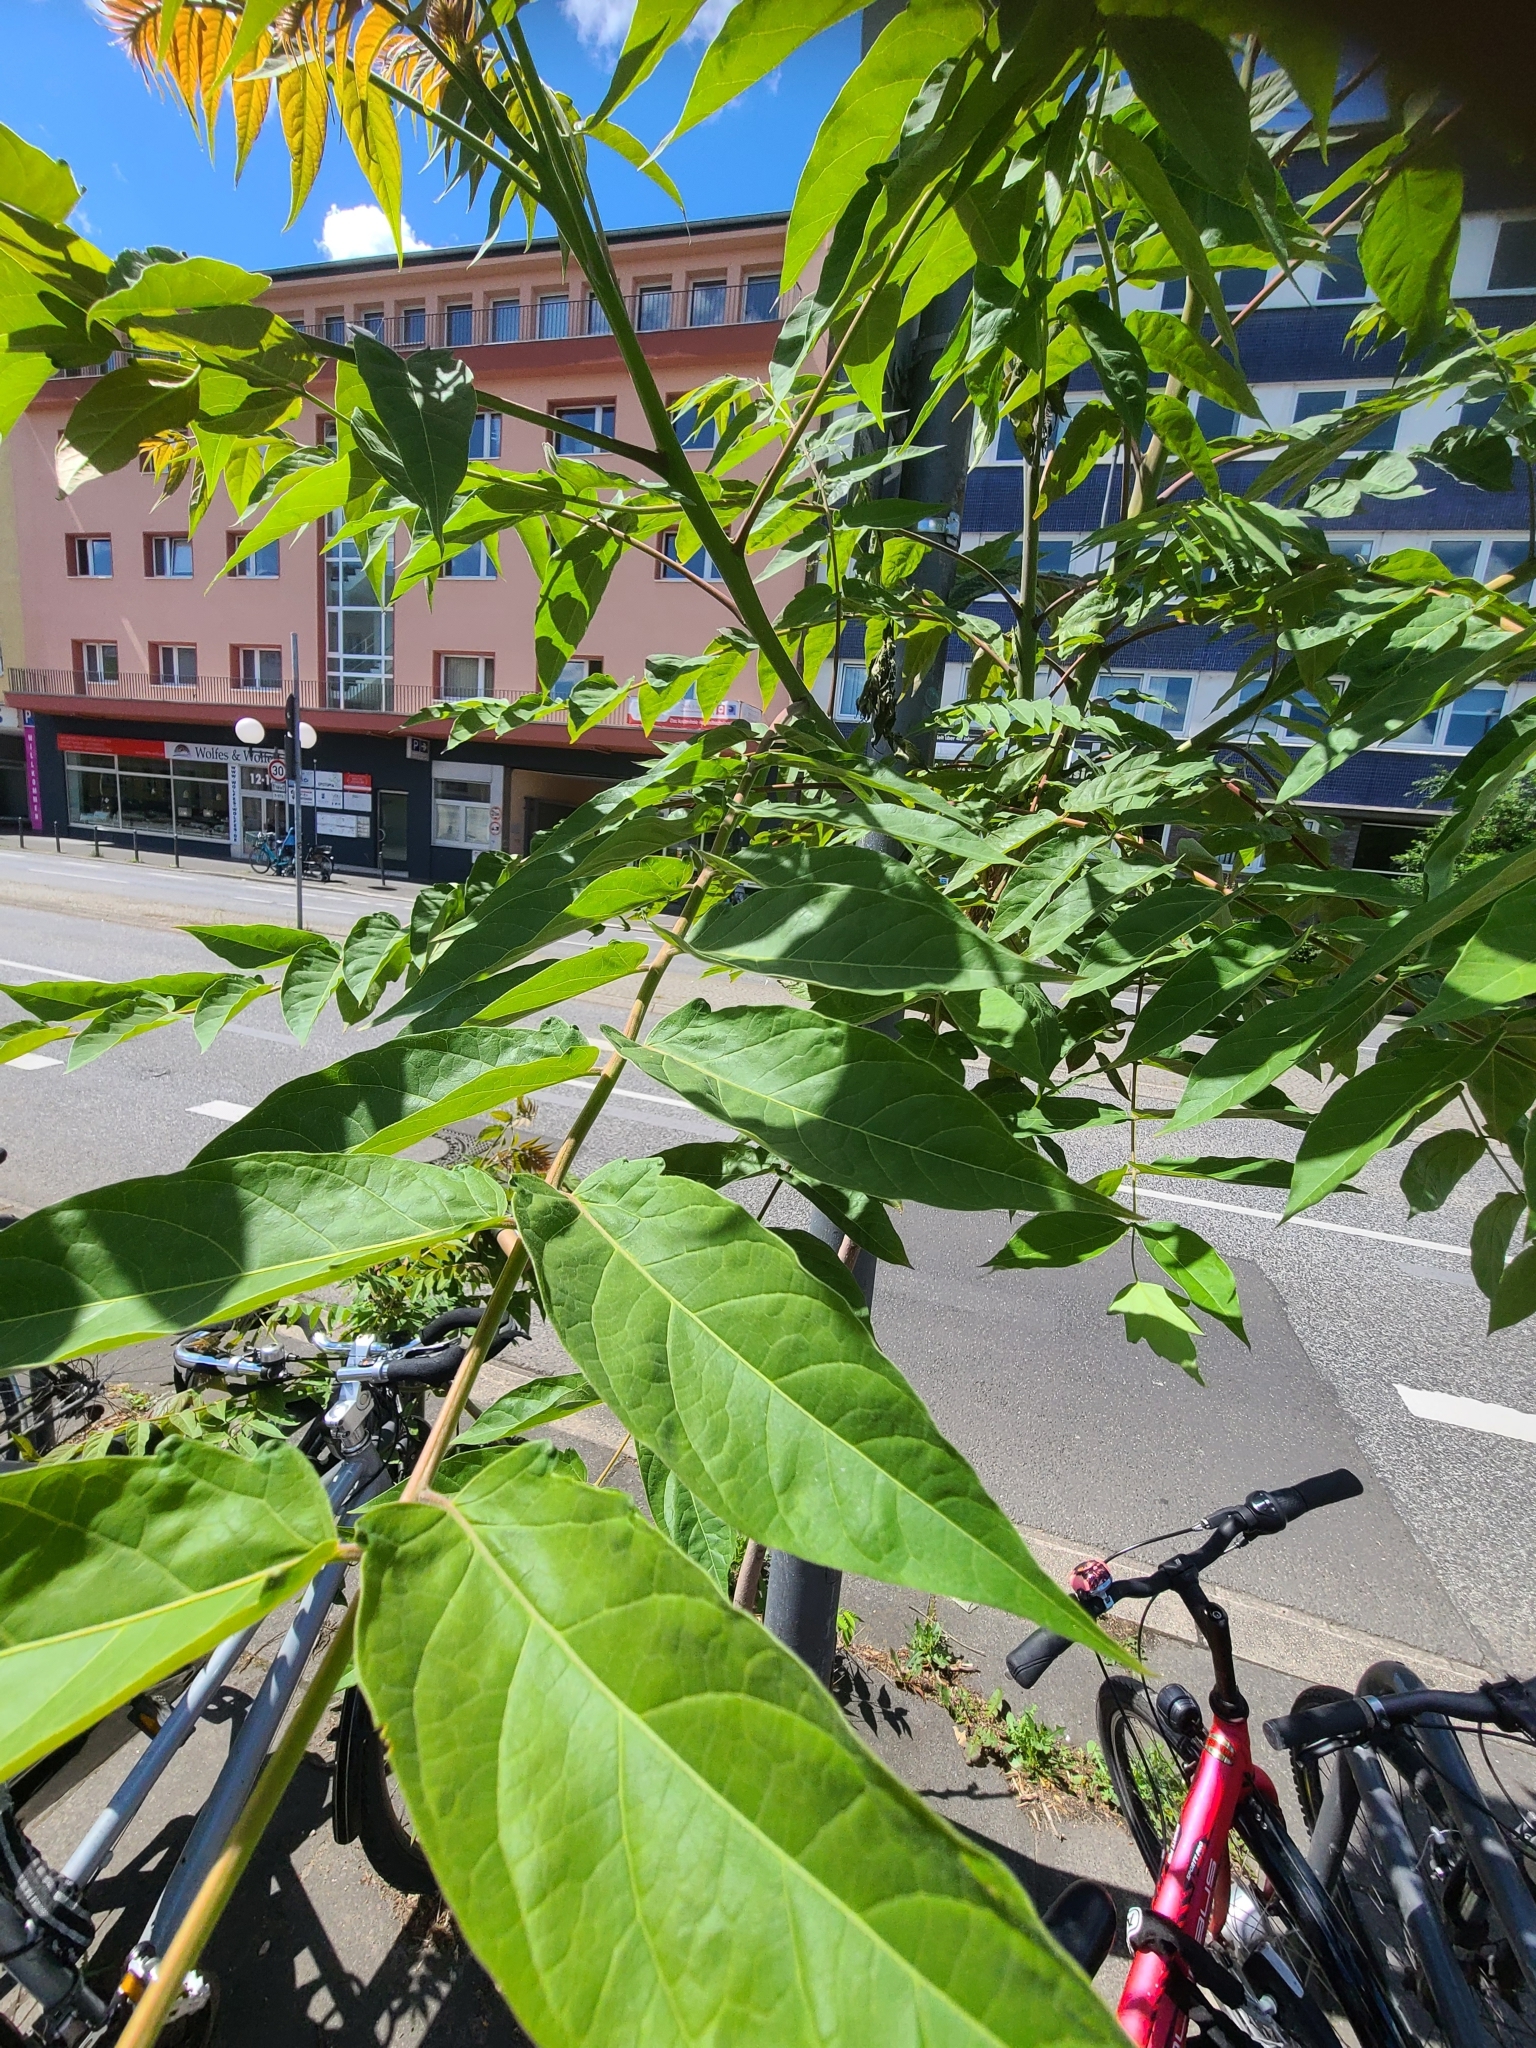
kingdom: Plantae
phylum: Tracheophyta
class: Magnoliopsida
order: Sapindales
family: Simaroubaceae
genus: Ailanthus
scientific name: Ailanthus altissima
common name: Tree-of-heaven
